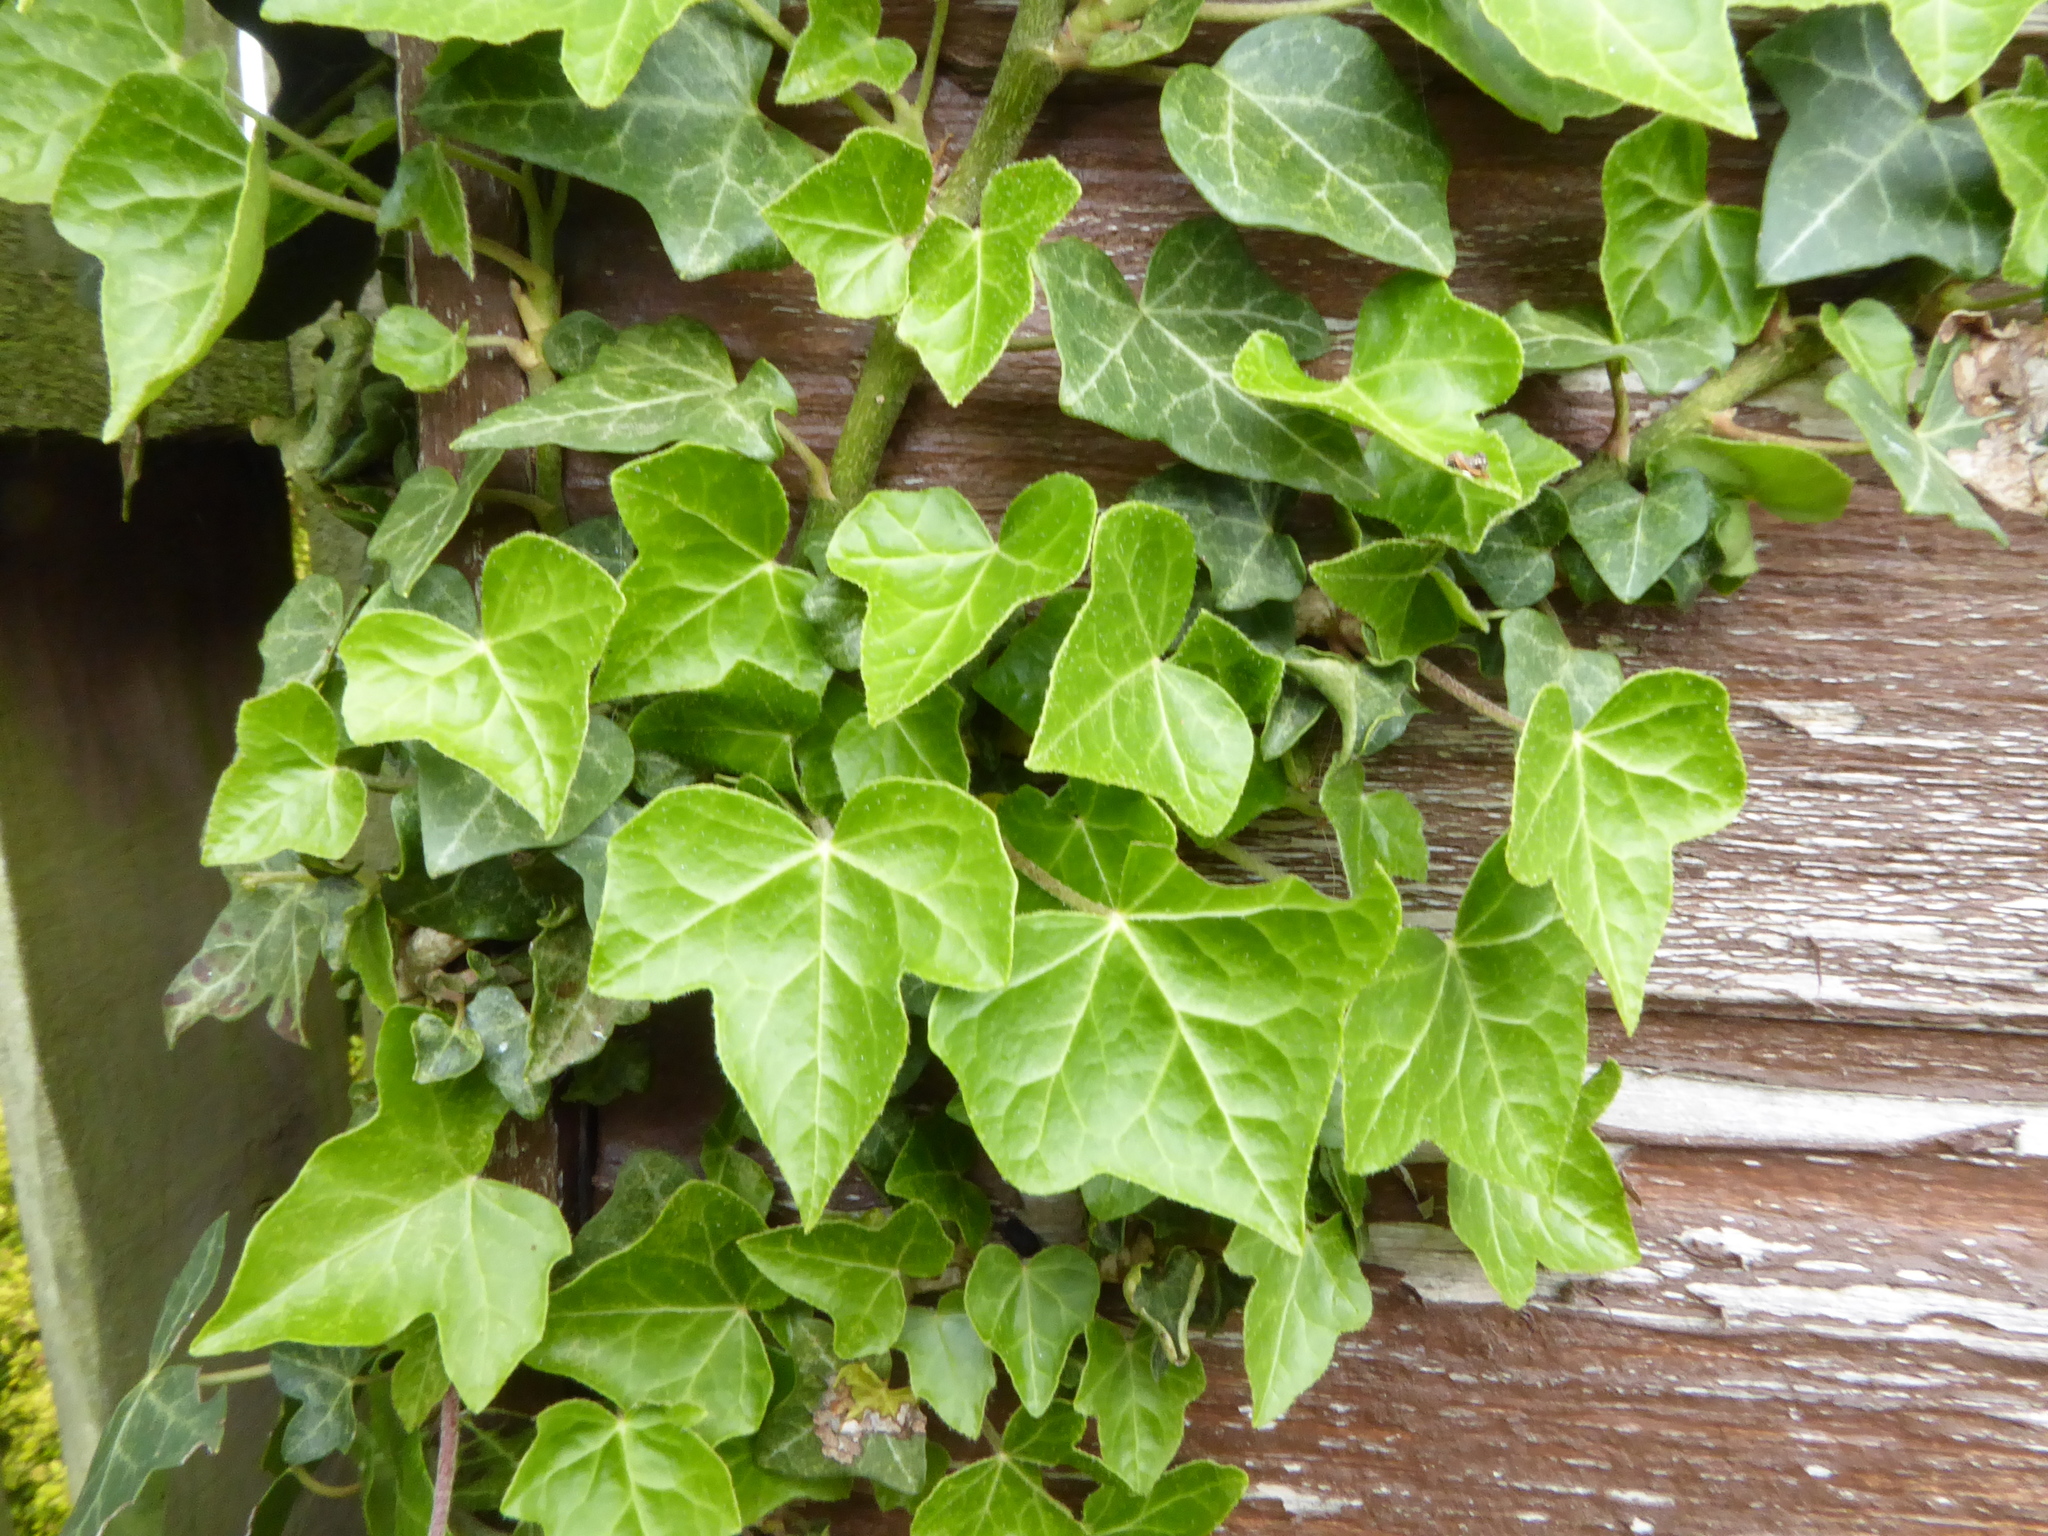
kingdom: Plantae
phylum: Tracheophyta
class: Magnoliopsida
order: Apiales
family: Araliaceae
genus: Hedera
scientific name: Hedera helix
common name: Ivy
